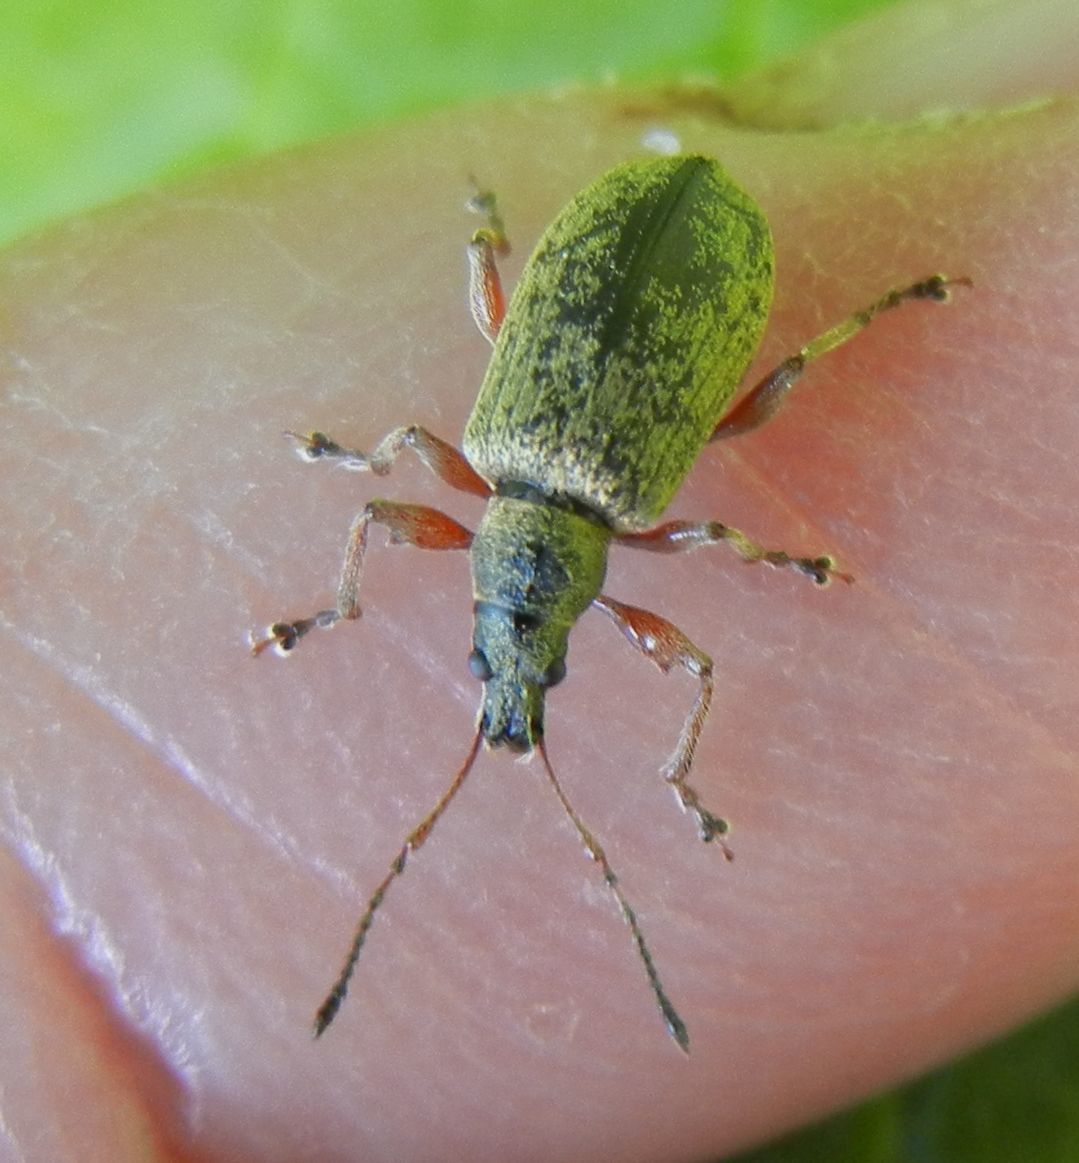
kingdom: Animalia
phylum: Arthropoda
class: Insecta
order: Coleoptera
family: Curculionidae
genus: Phyllobius
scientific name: Phyllobius glaucus
